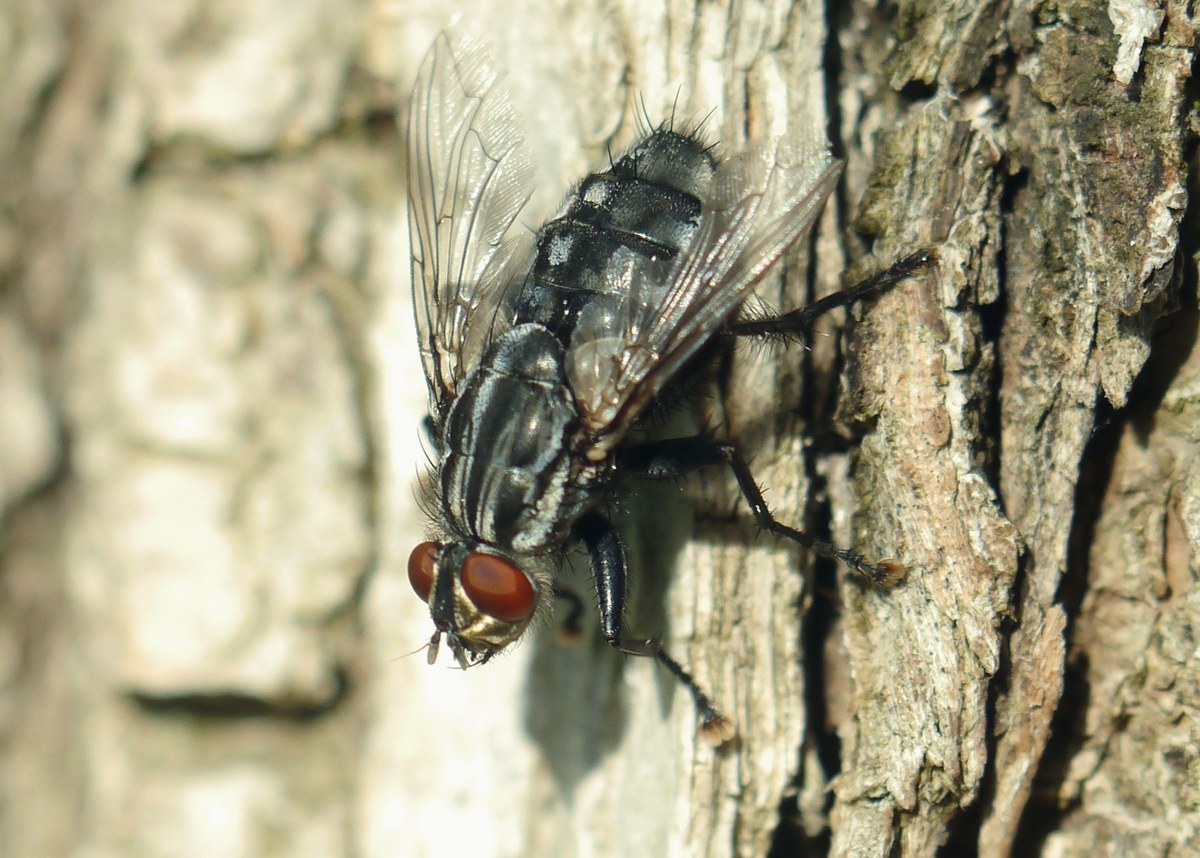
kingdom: Animalia
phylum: Arthropoda
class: Insecta
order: Diptera
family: Sarcophagidae
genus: Sarcophaga
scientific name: Sarcophaga
